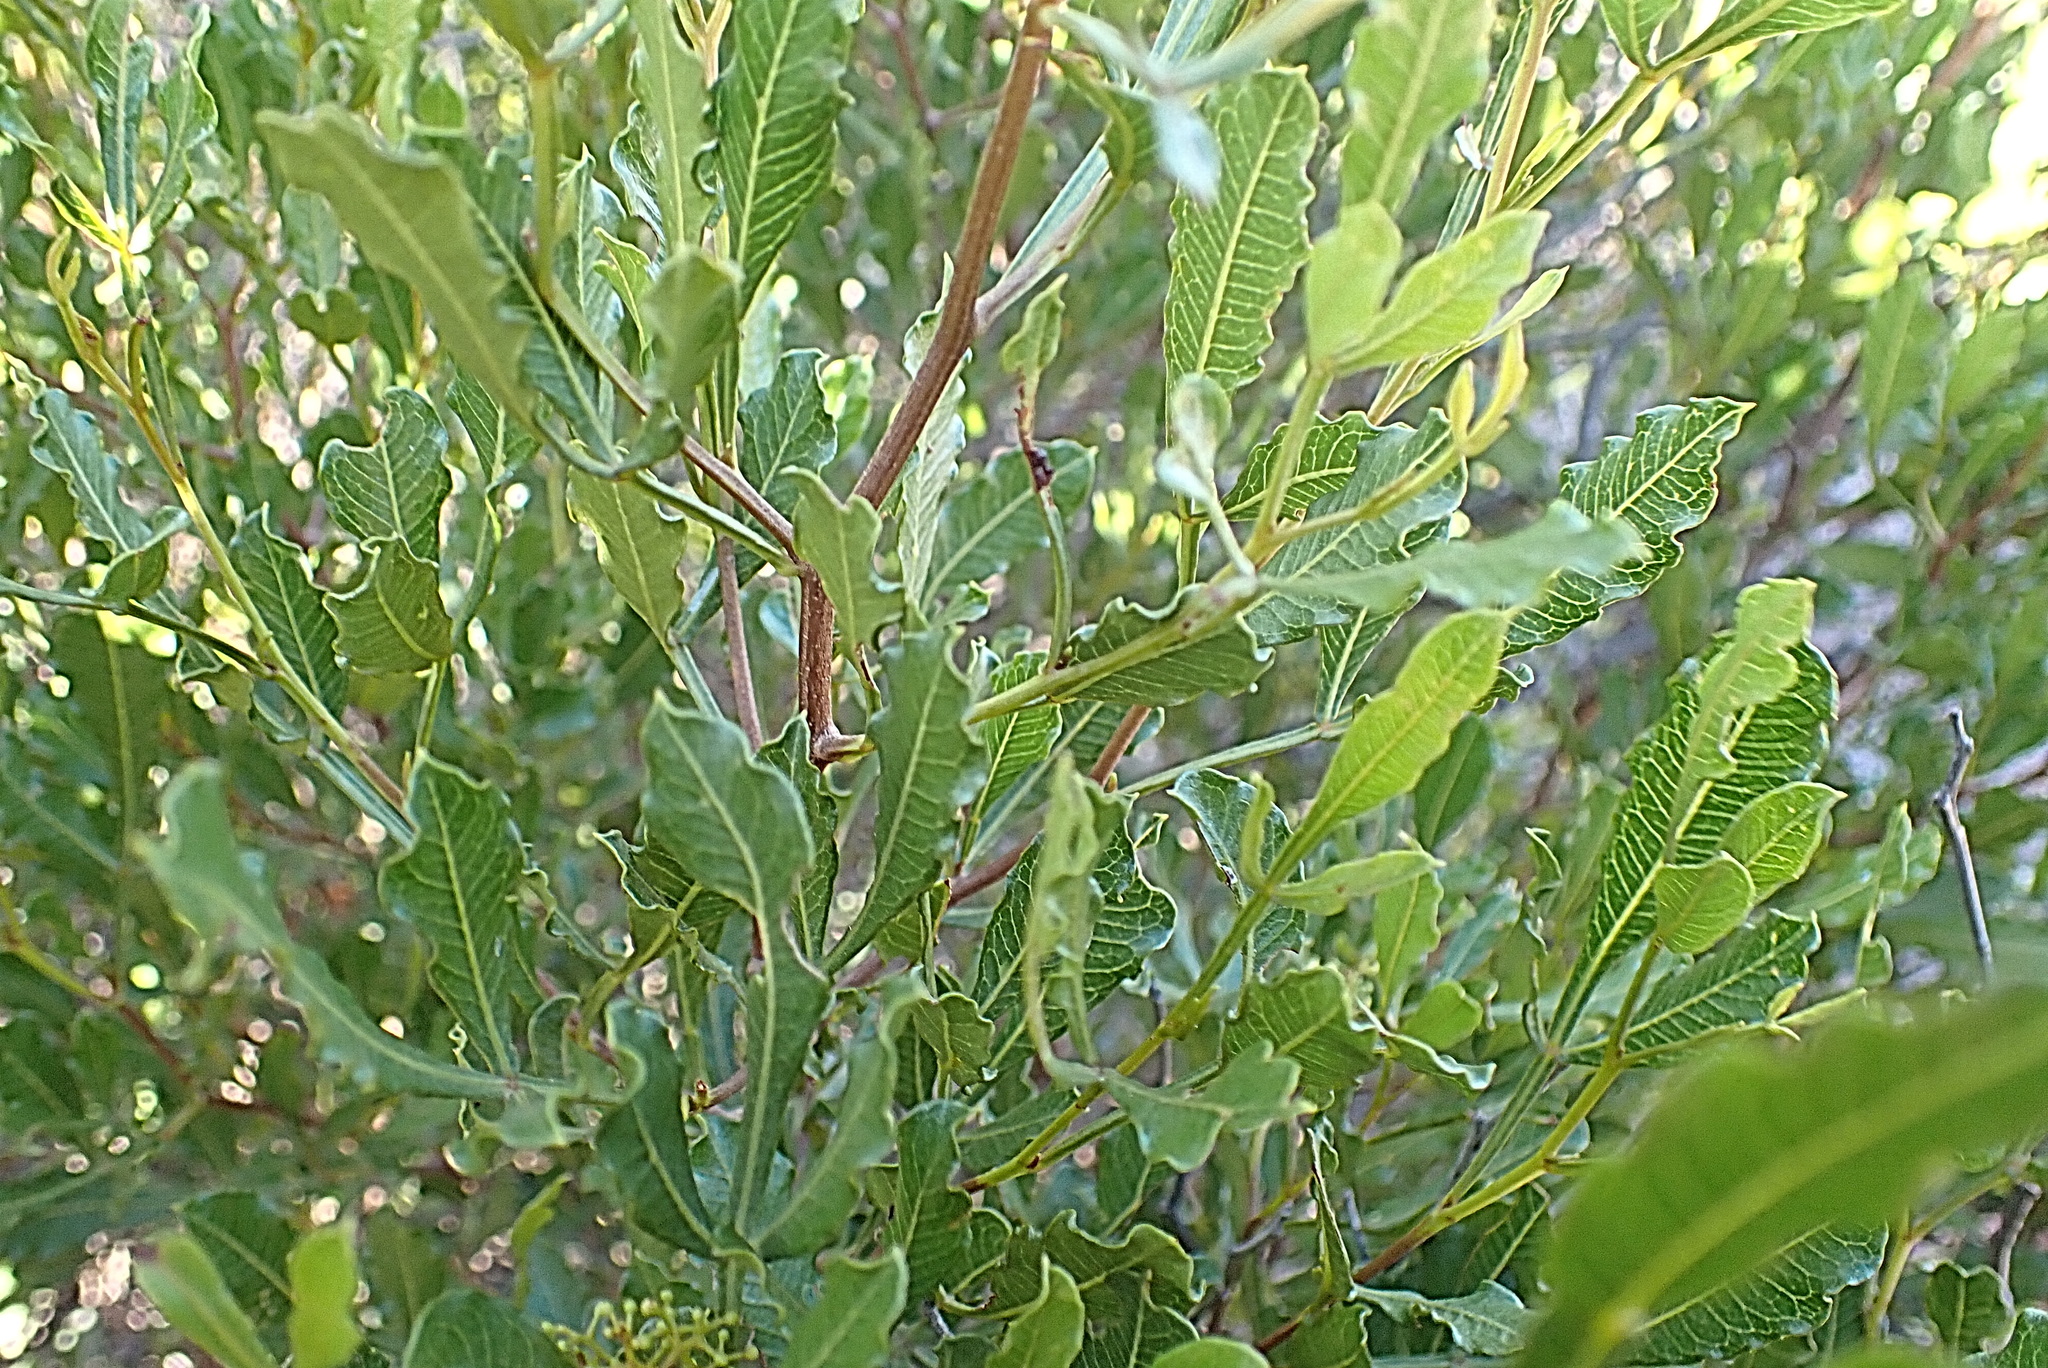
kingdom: Plantae
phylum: Tracheophyta
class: Magnoliopsida
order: Sapindales
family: Anacardiaceae
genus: Searsia
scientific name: Searsia pallens
